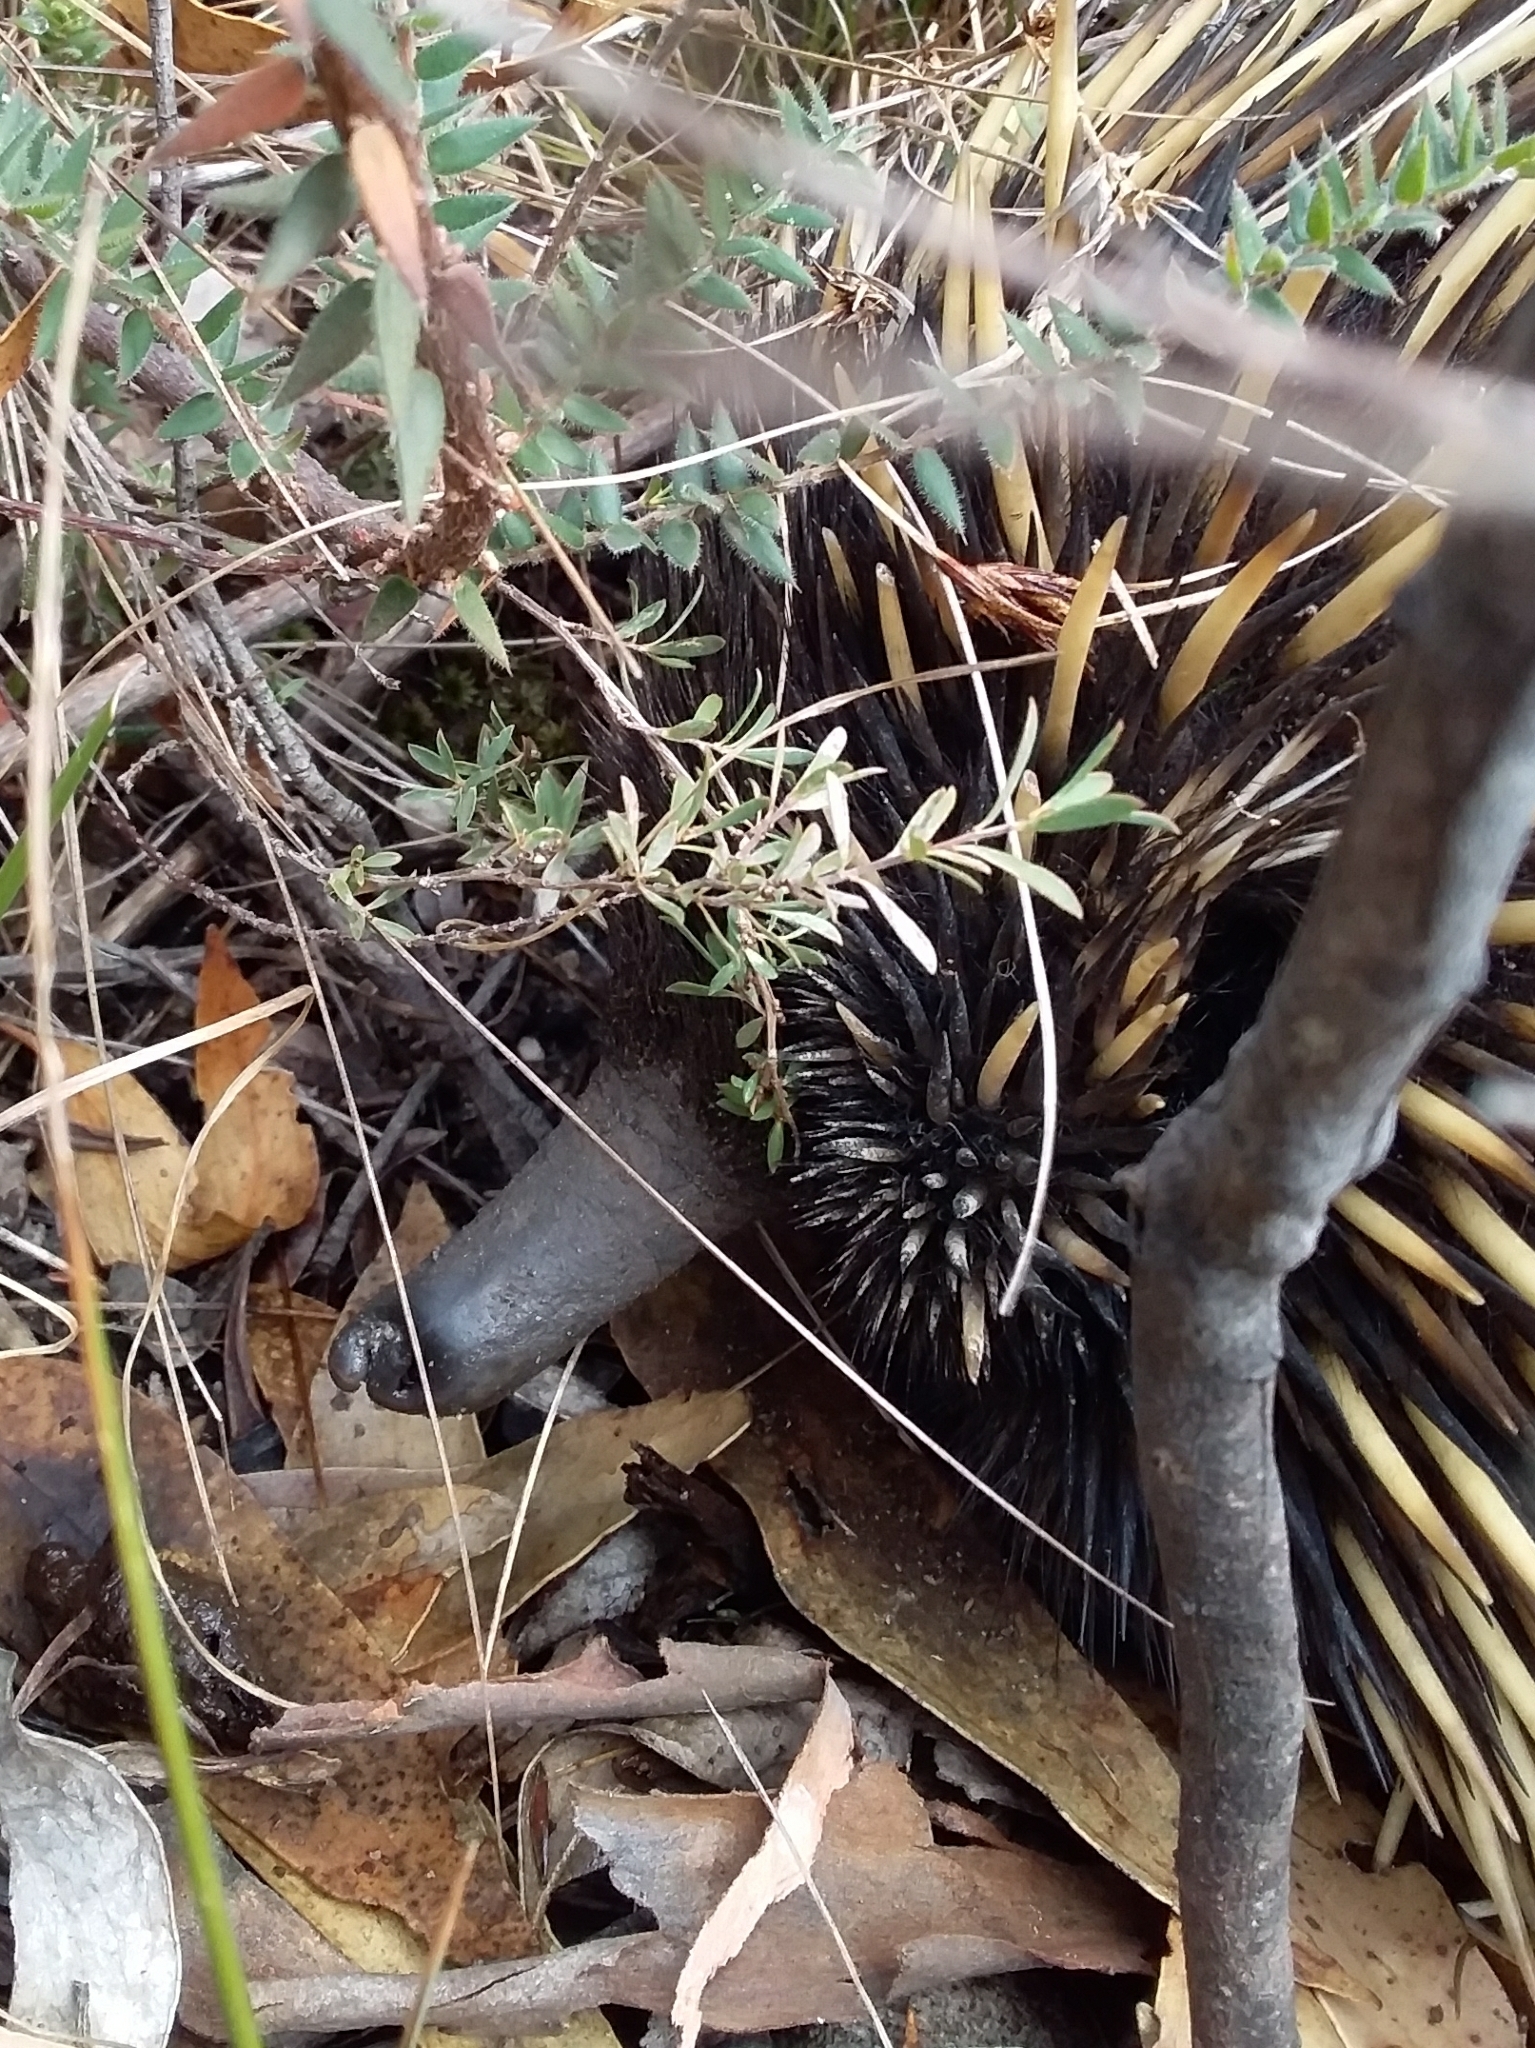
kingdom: Animalia
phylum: Chordata
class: Mammalia
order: Monotremata
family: Tachyglossidae
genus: Tachyglossus
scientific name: Tachyglossus aculeatus
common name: Short-beaked echidna
